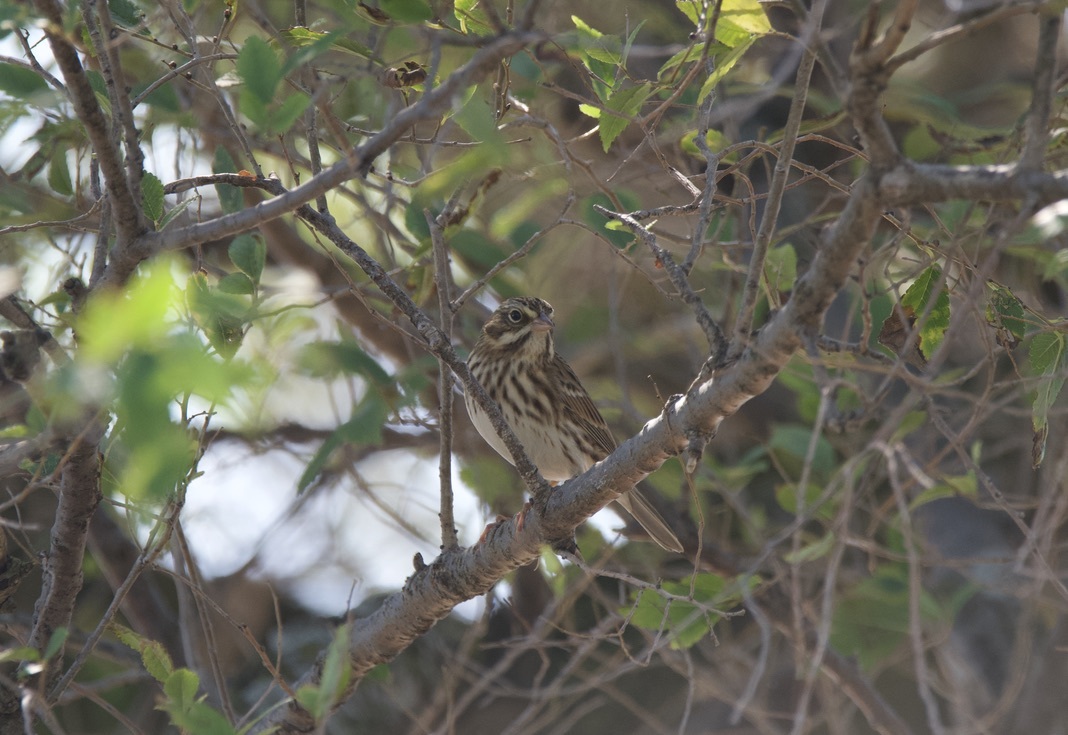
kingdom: Animalia
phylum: Chordata
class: Aves
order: Passeriformes
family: Passerellidae
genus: Passerculus
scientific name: Passerculus sandwichensis
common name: Savannah sparrow
